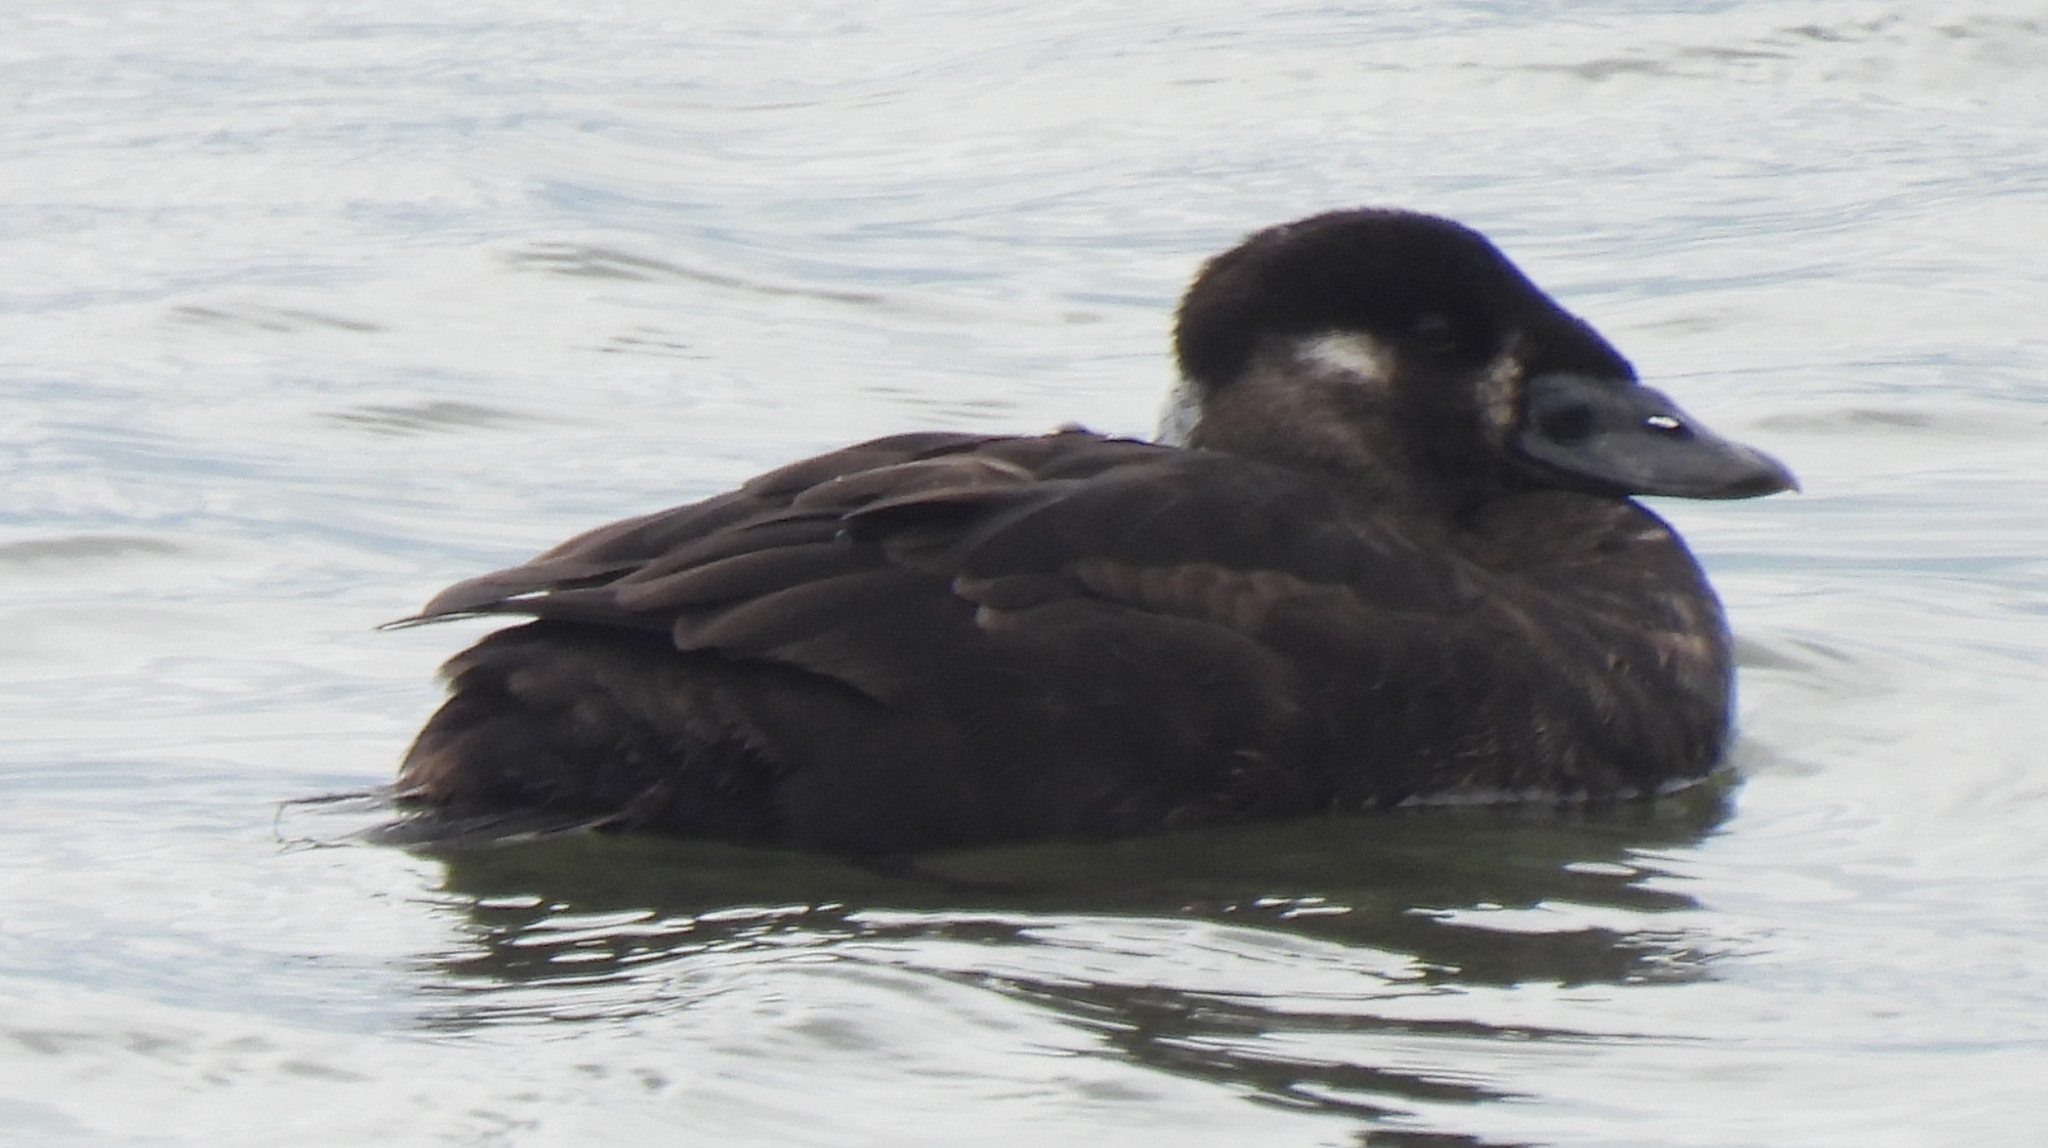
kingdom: Animalia
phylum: Chordata
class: Aves
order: Anseriformes
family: Anatidae
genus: Melanitta
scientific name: Melanitta perspicillata
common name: Surf scoter
